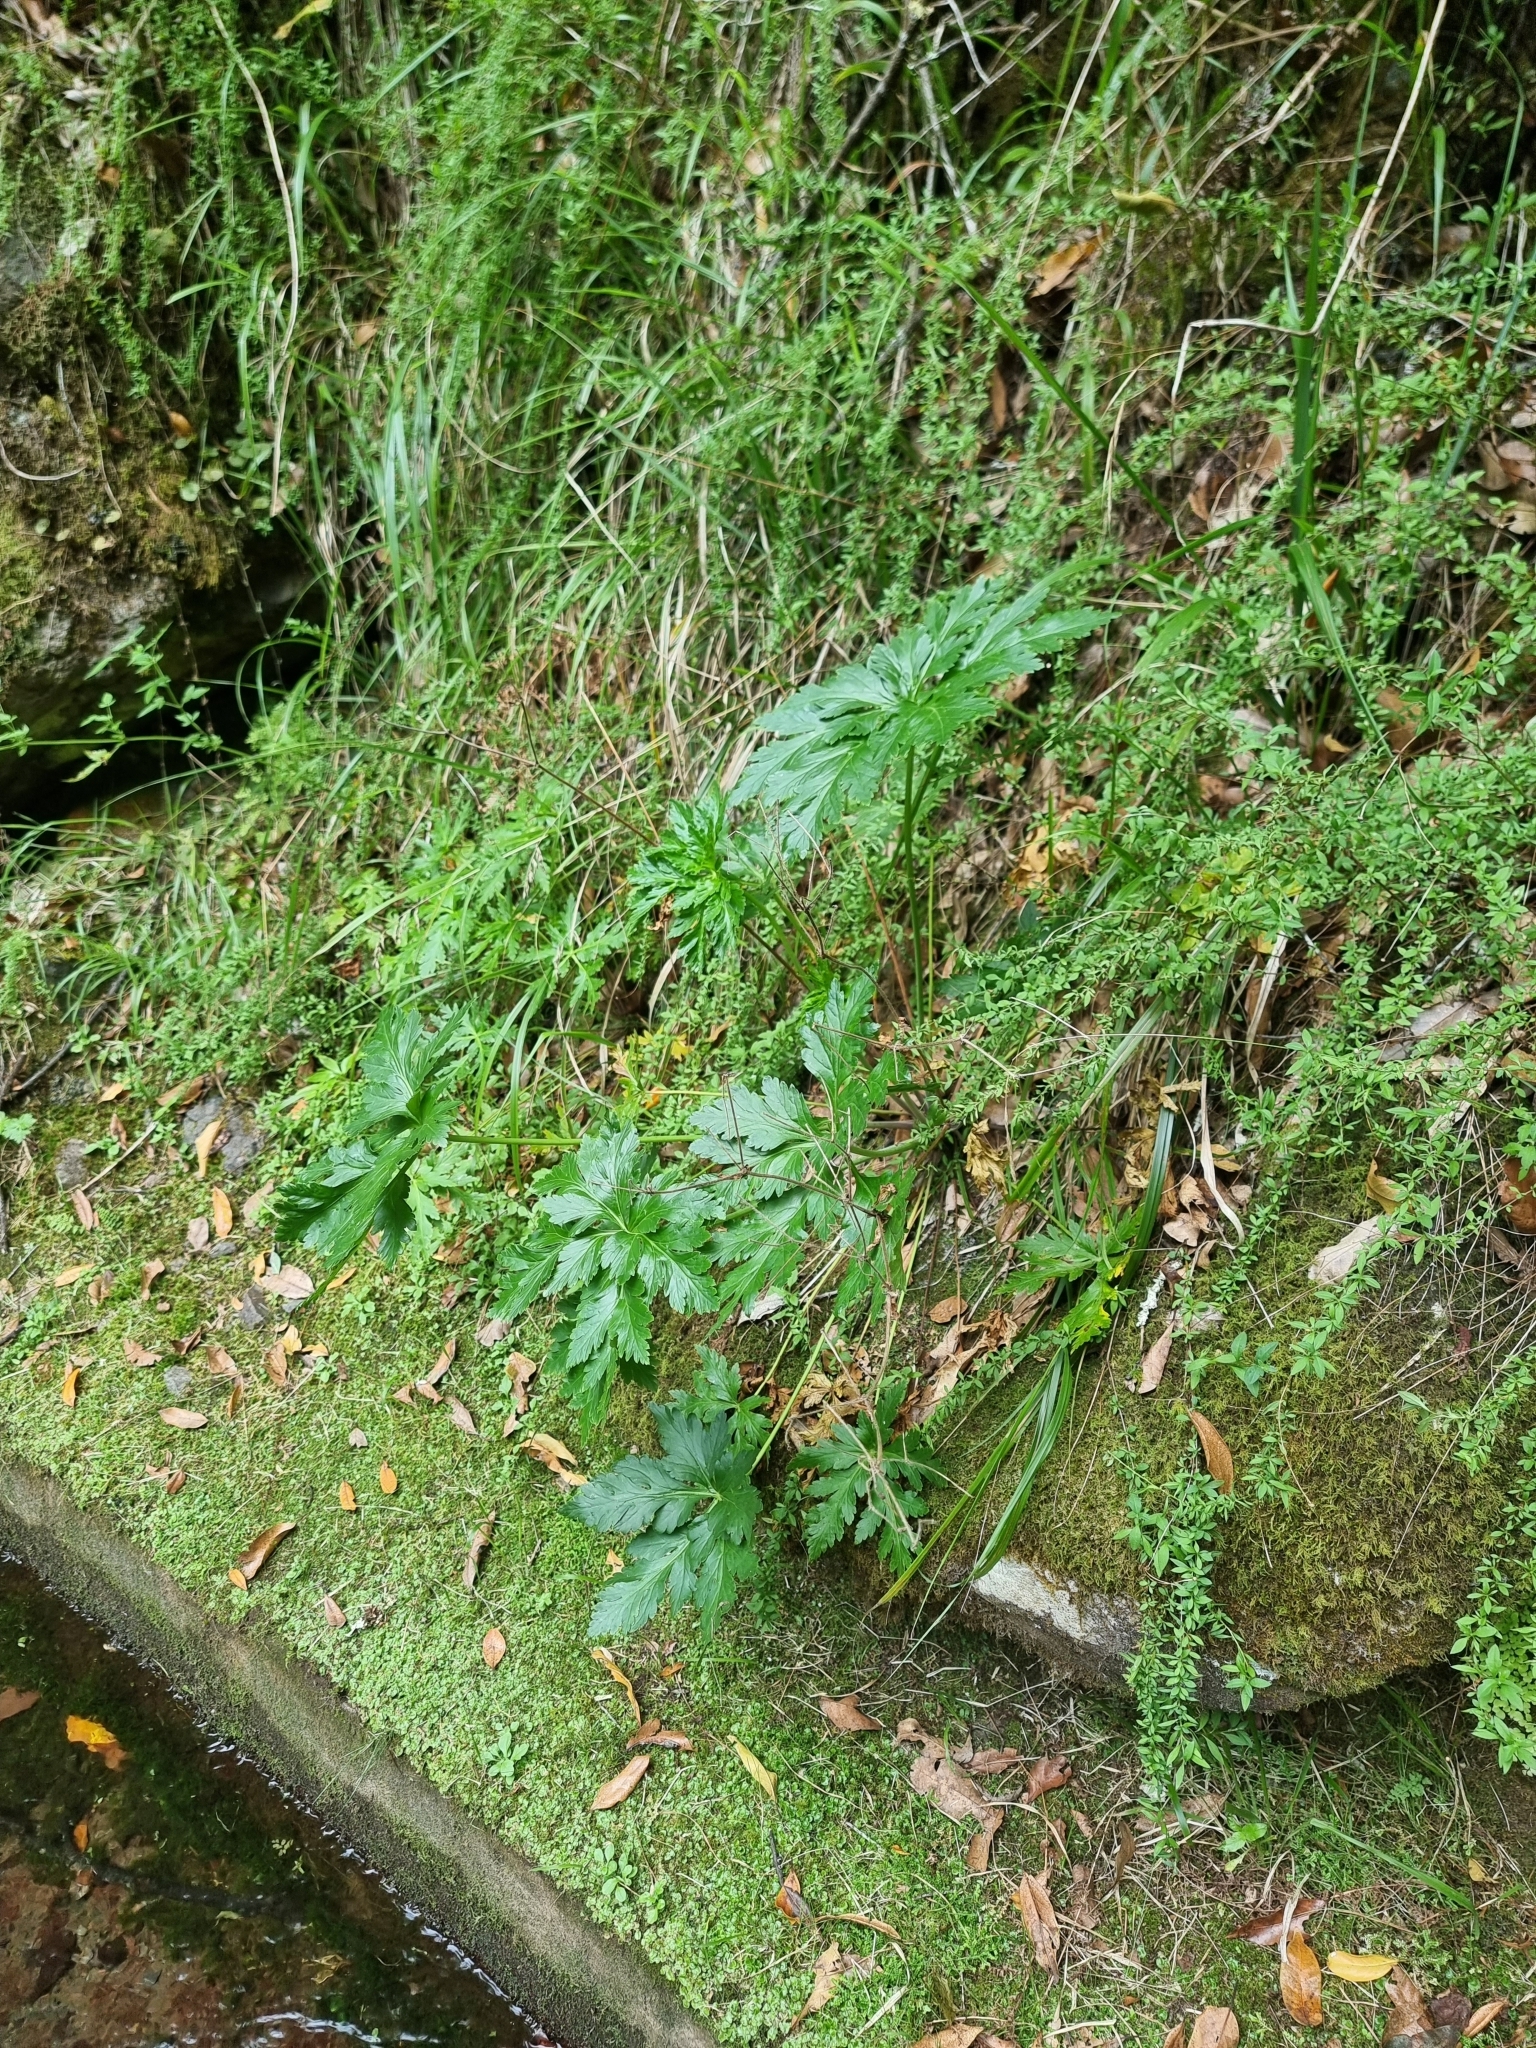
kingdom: Plantae
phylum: Tracheophyta
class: Magnoliopsida
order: Geraniales
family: Geraniaceae
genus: Geranium
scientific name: Geranium palmatum
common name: Canary island geranium
